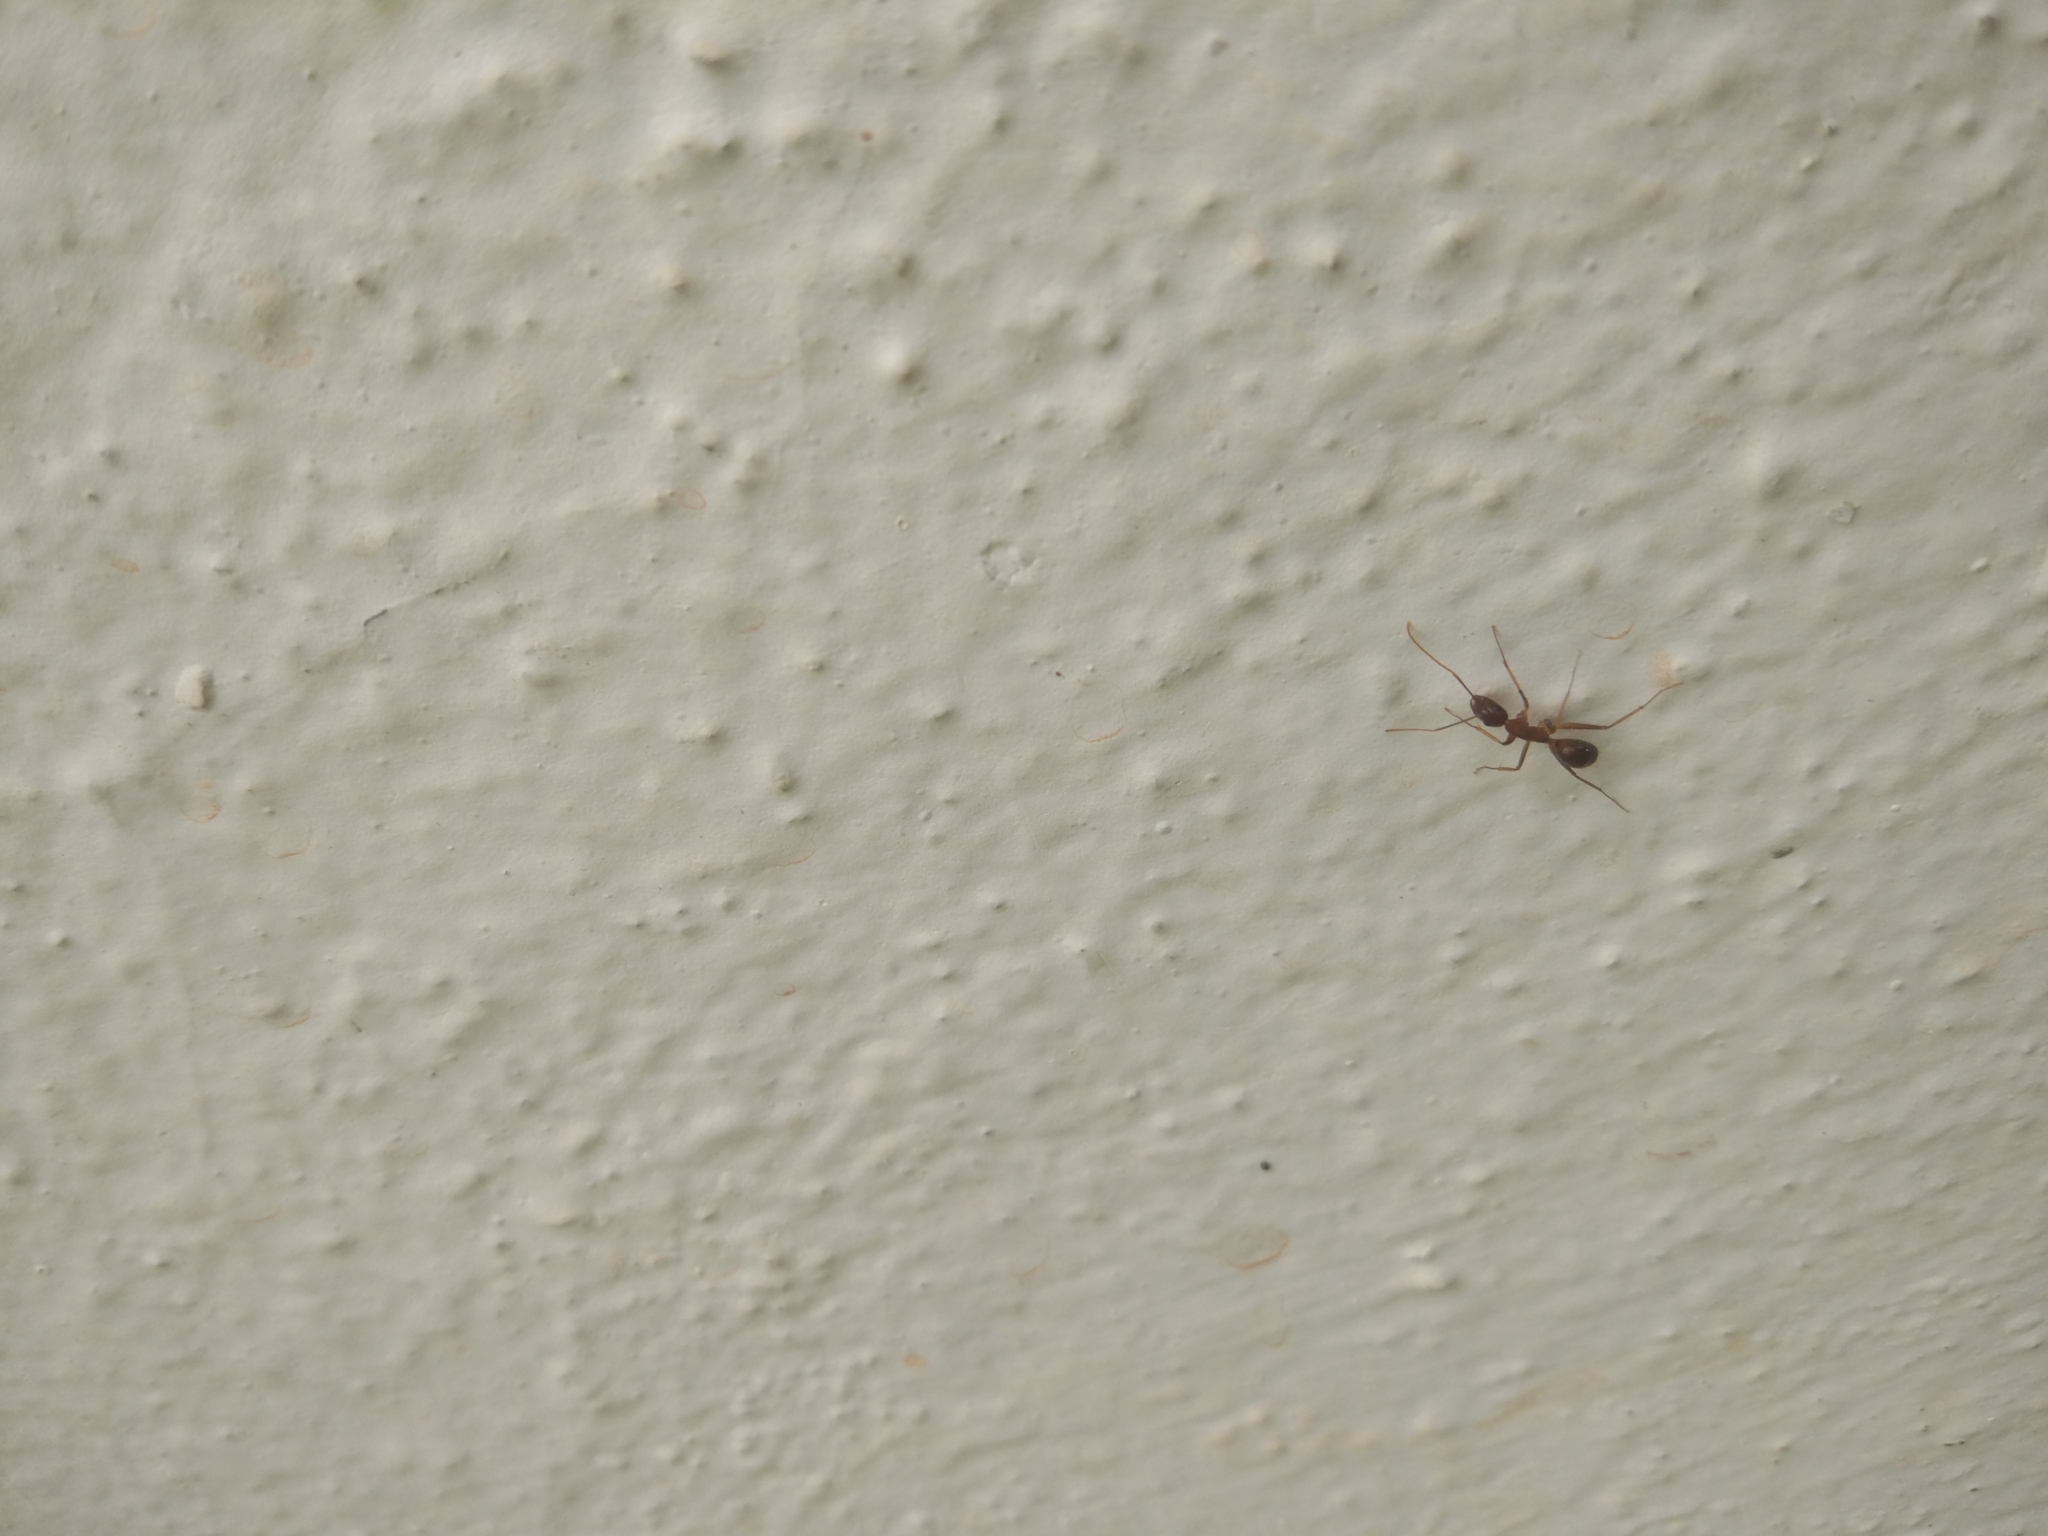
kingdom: Animalia
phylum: Arthropoda
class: Insecta
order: Hymenoptera
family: Formicidae
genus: Anoplolepis
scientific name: Anoplolepis gracilipes
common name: Ant
